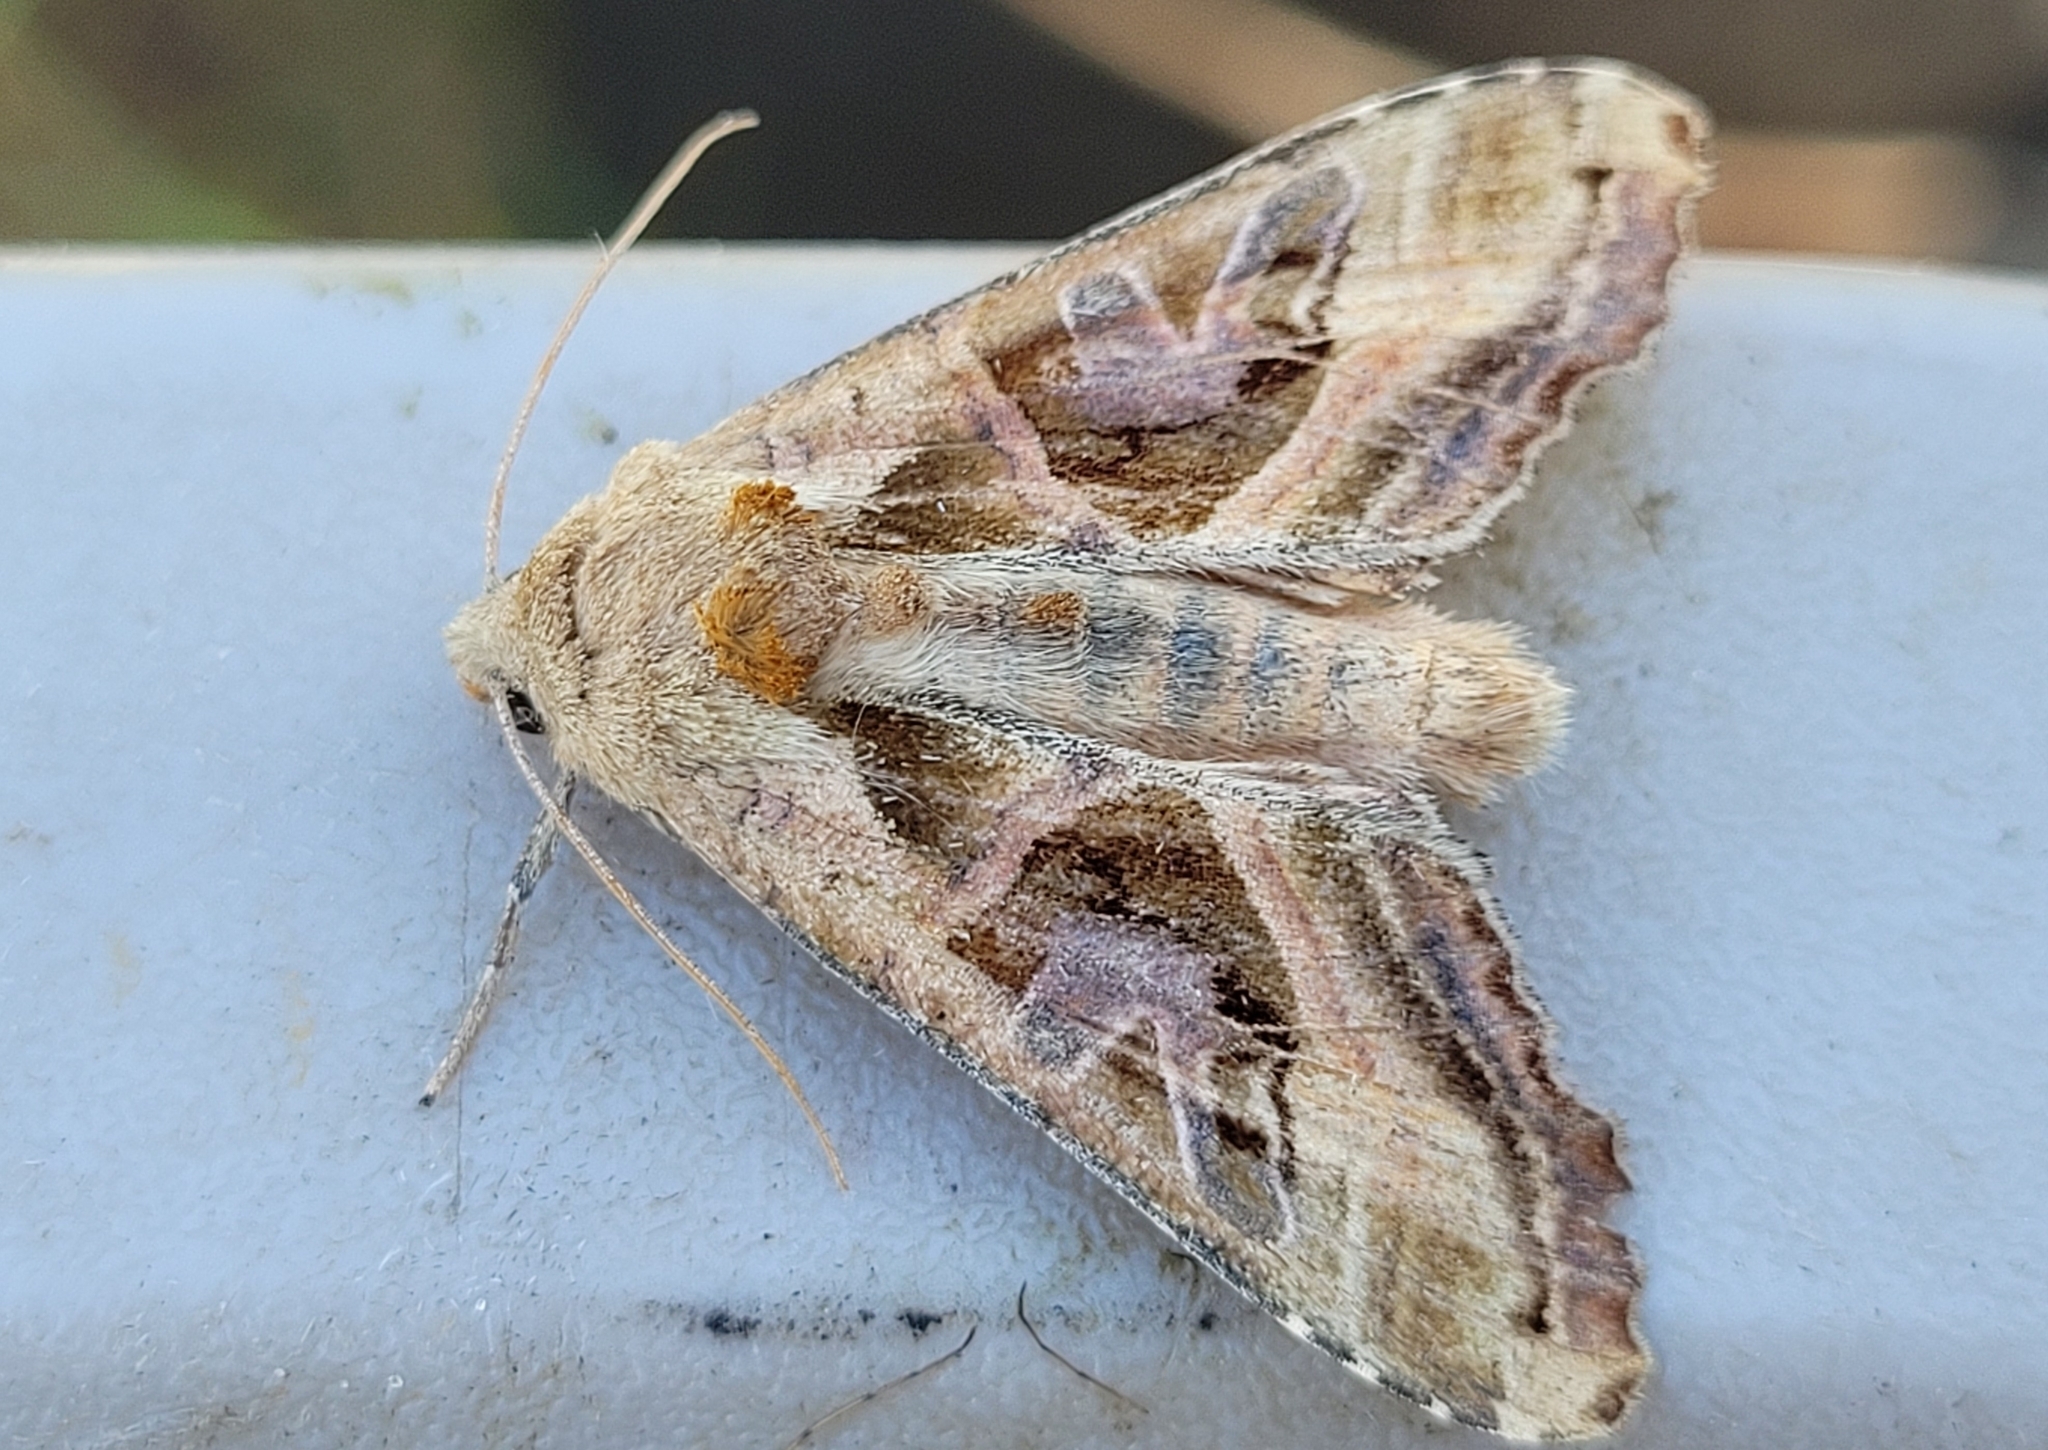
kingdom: Animalia
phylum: Arthropoda
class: Insecta
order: Lepidoptera
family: Noctuidae
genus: Phlogophora
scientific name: Phlogophora iris
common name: Olive angle shades
